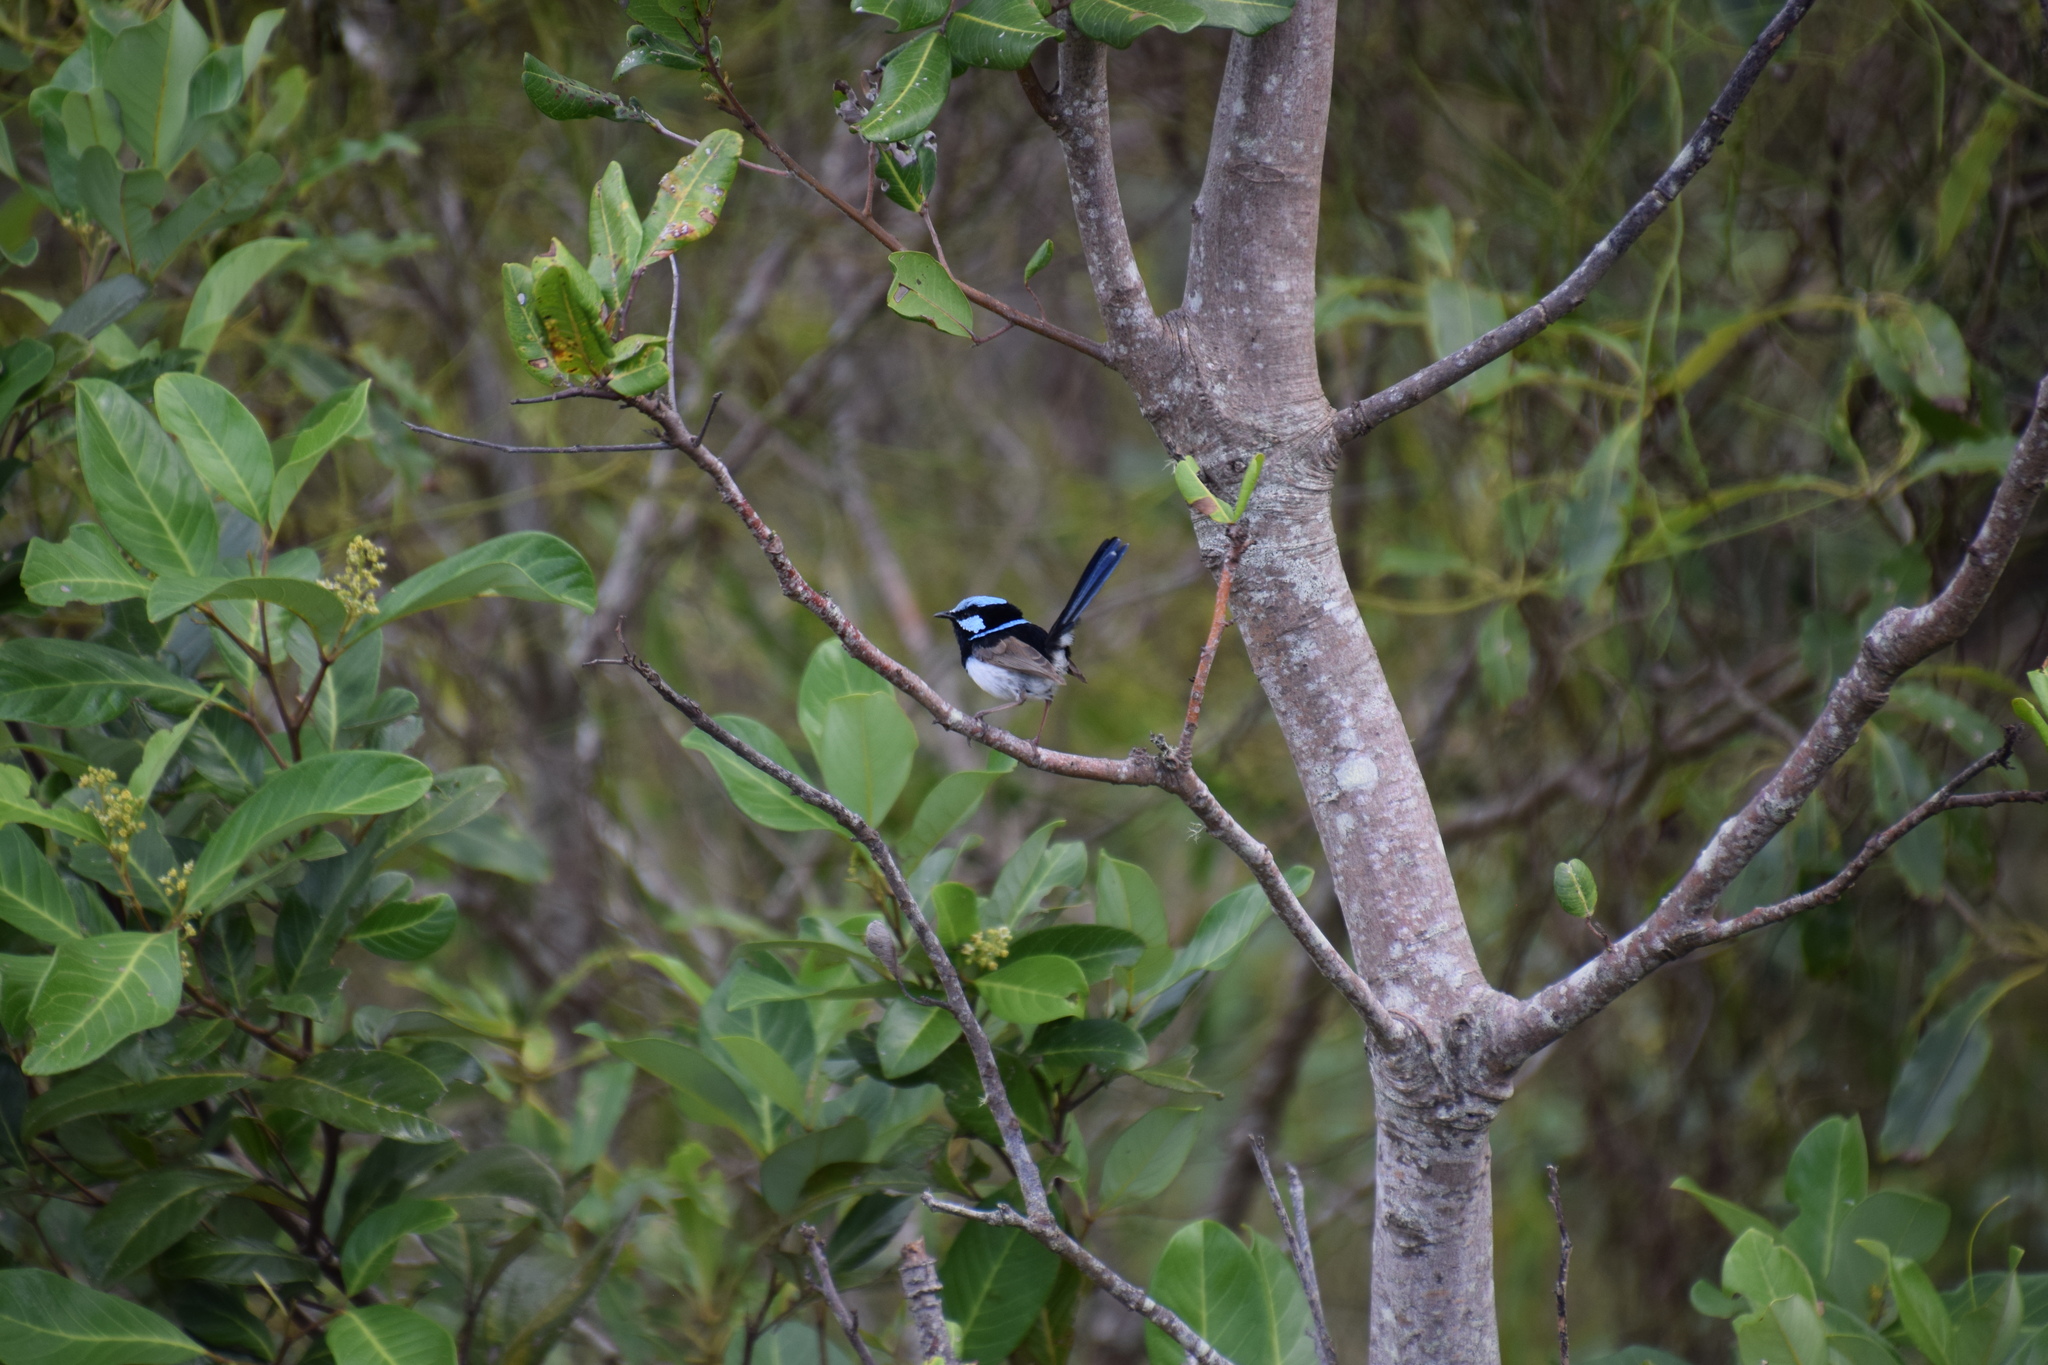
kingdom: Animalia
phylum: Chordata
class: Aves
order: Passeriformes
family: Maluridae
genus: Malurus
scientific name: Malurus cyaneus
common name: Superb fairywren
